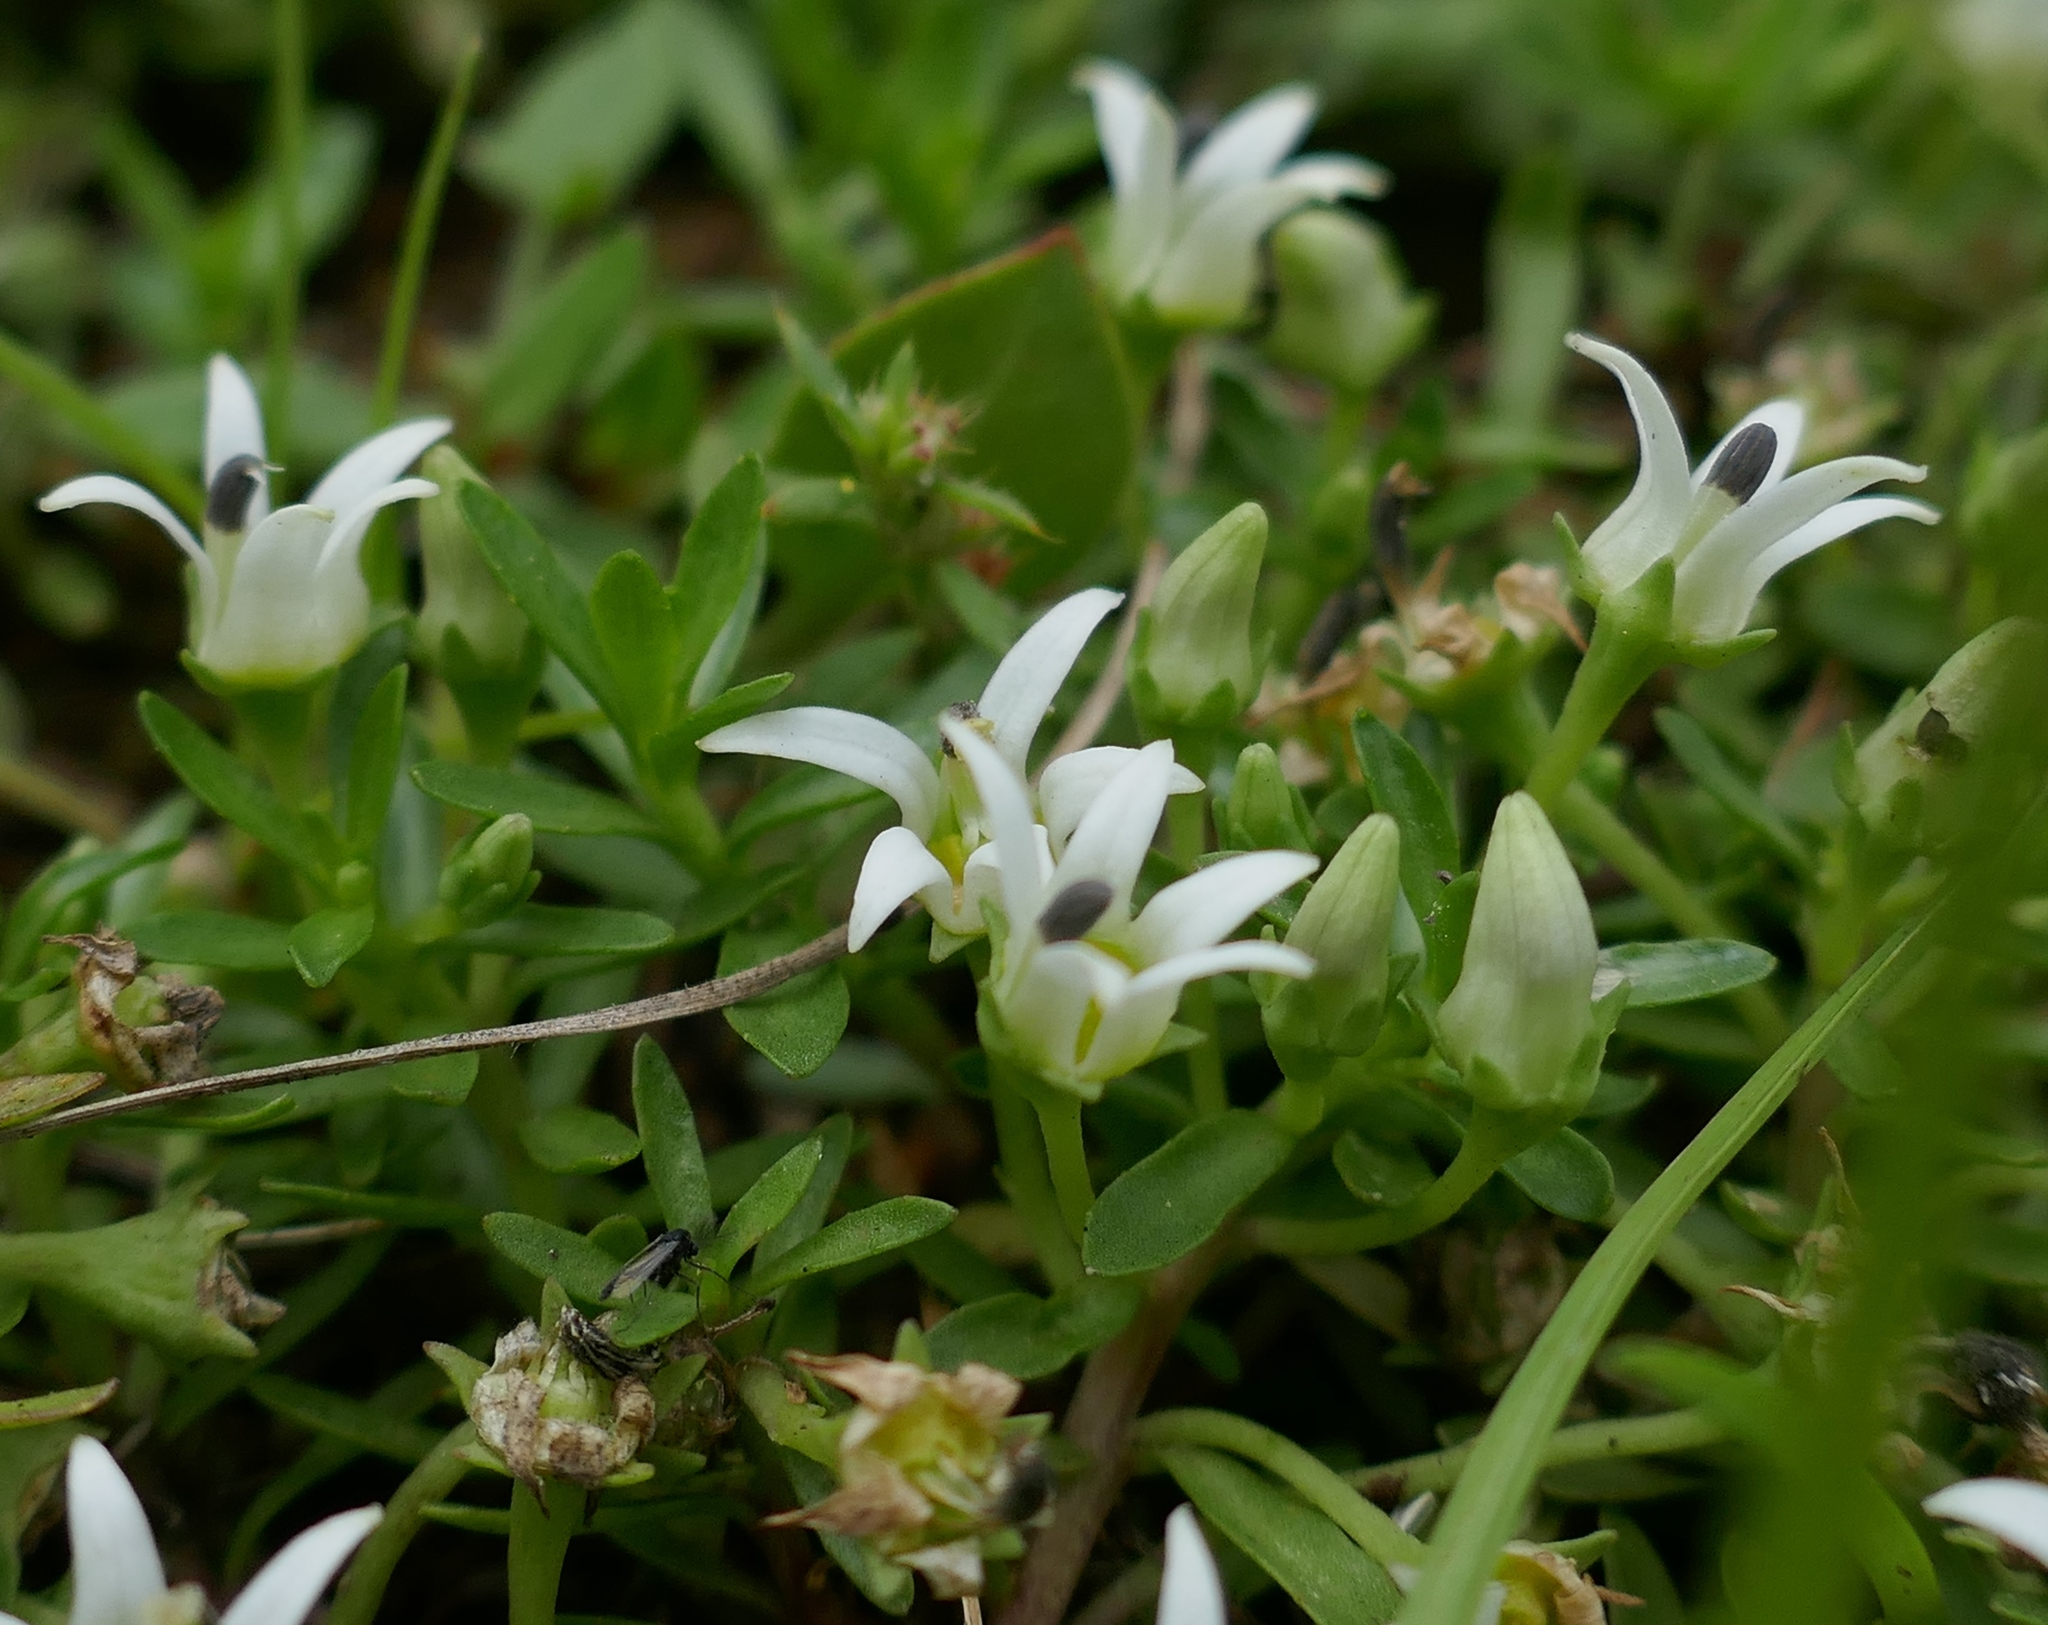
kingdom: Plantae
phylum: Tracheophyta
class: Magnoliopsida
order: Asterales
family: Campanulaceae
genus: Lobelia
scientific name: Lobelia sonderiana
